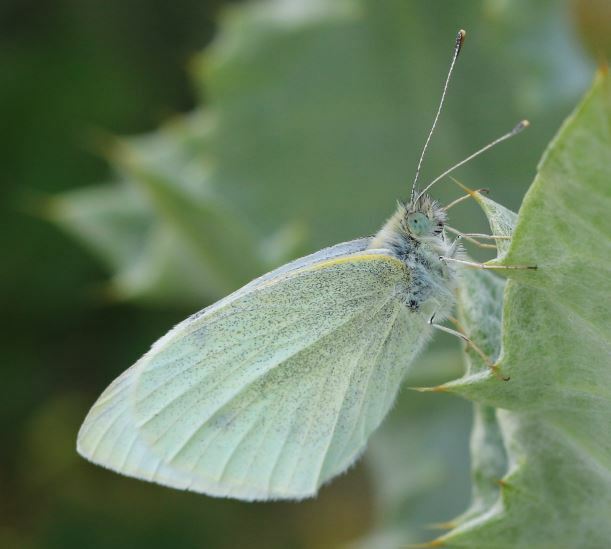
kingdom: Animalia
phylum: Arthropoda
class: Insecta
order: Lepidoptera
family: Pieridae
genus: Pieris
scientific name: Pieris rapae
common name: Small white
